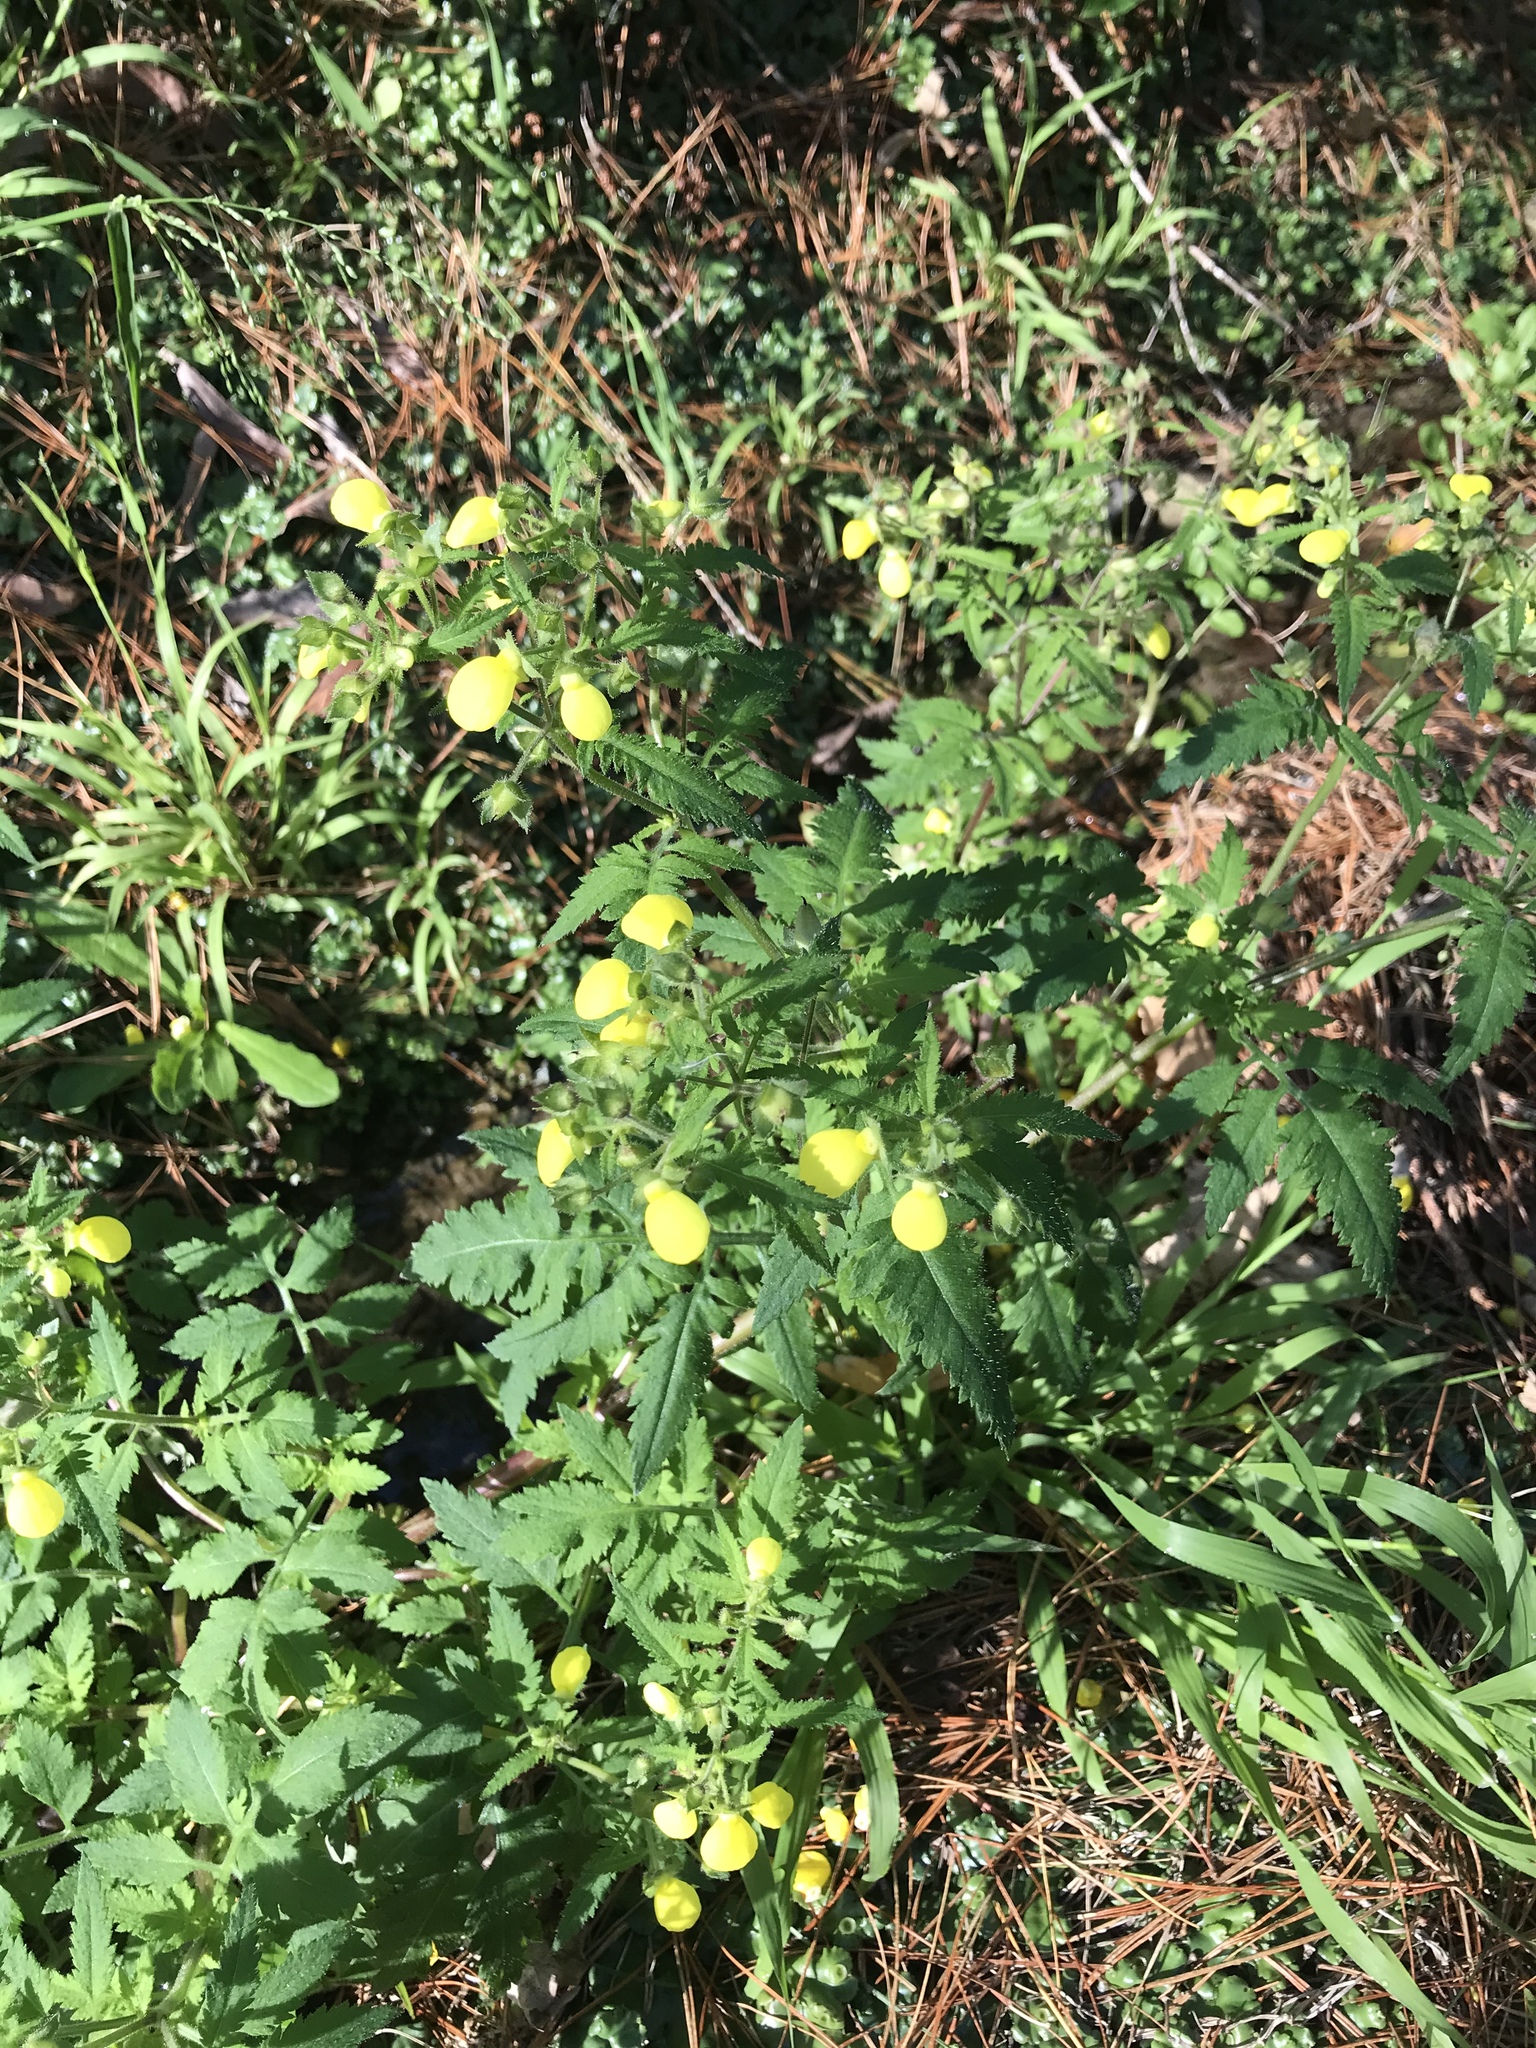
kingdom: Plantae
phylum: Tracheophyta
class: Magnoliopsida
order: Lamiales
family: Calceolariaceae
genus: Calceolaria
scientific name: Calceolaria tripartita
